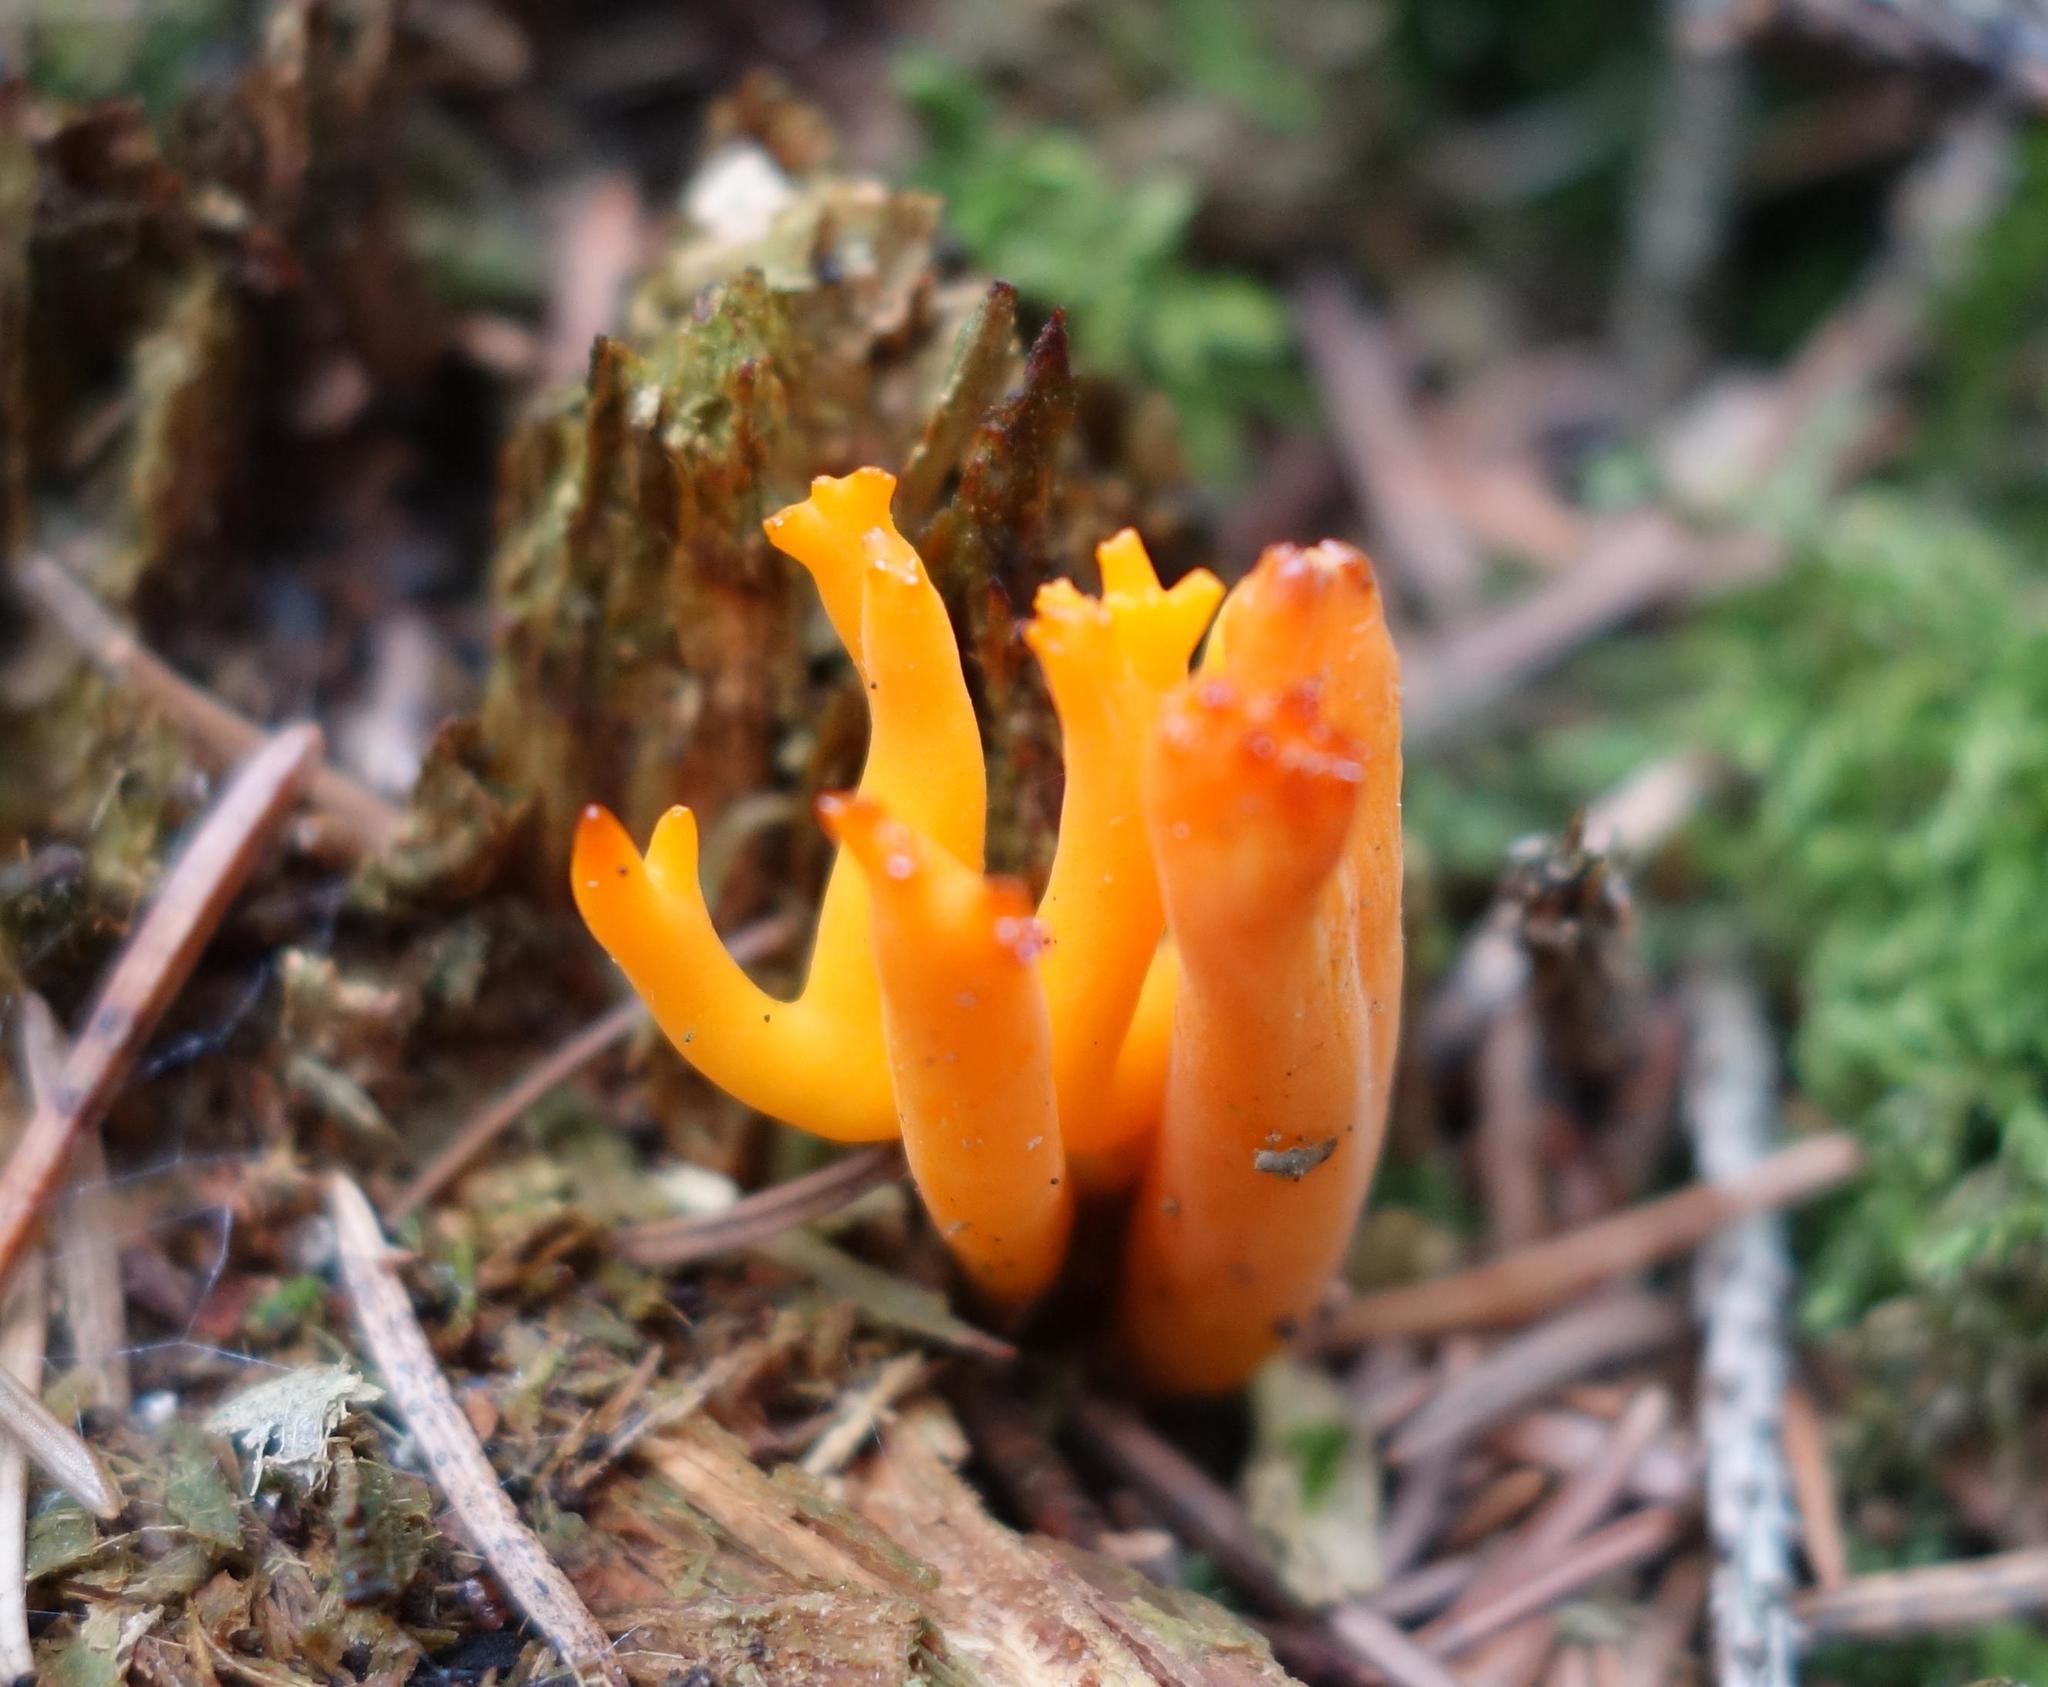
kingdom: Fungi
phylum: Basidiomycota
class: Dacrymycetes
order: Dacrymycetales
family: Dacrymycetaceae
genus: Calocera
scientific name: Calocera viscosa
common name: Yellow stagshorn
